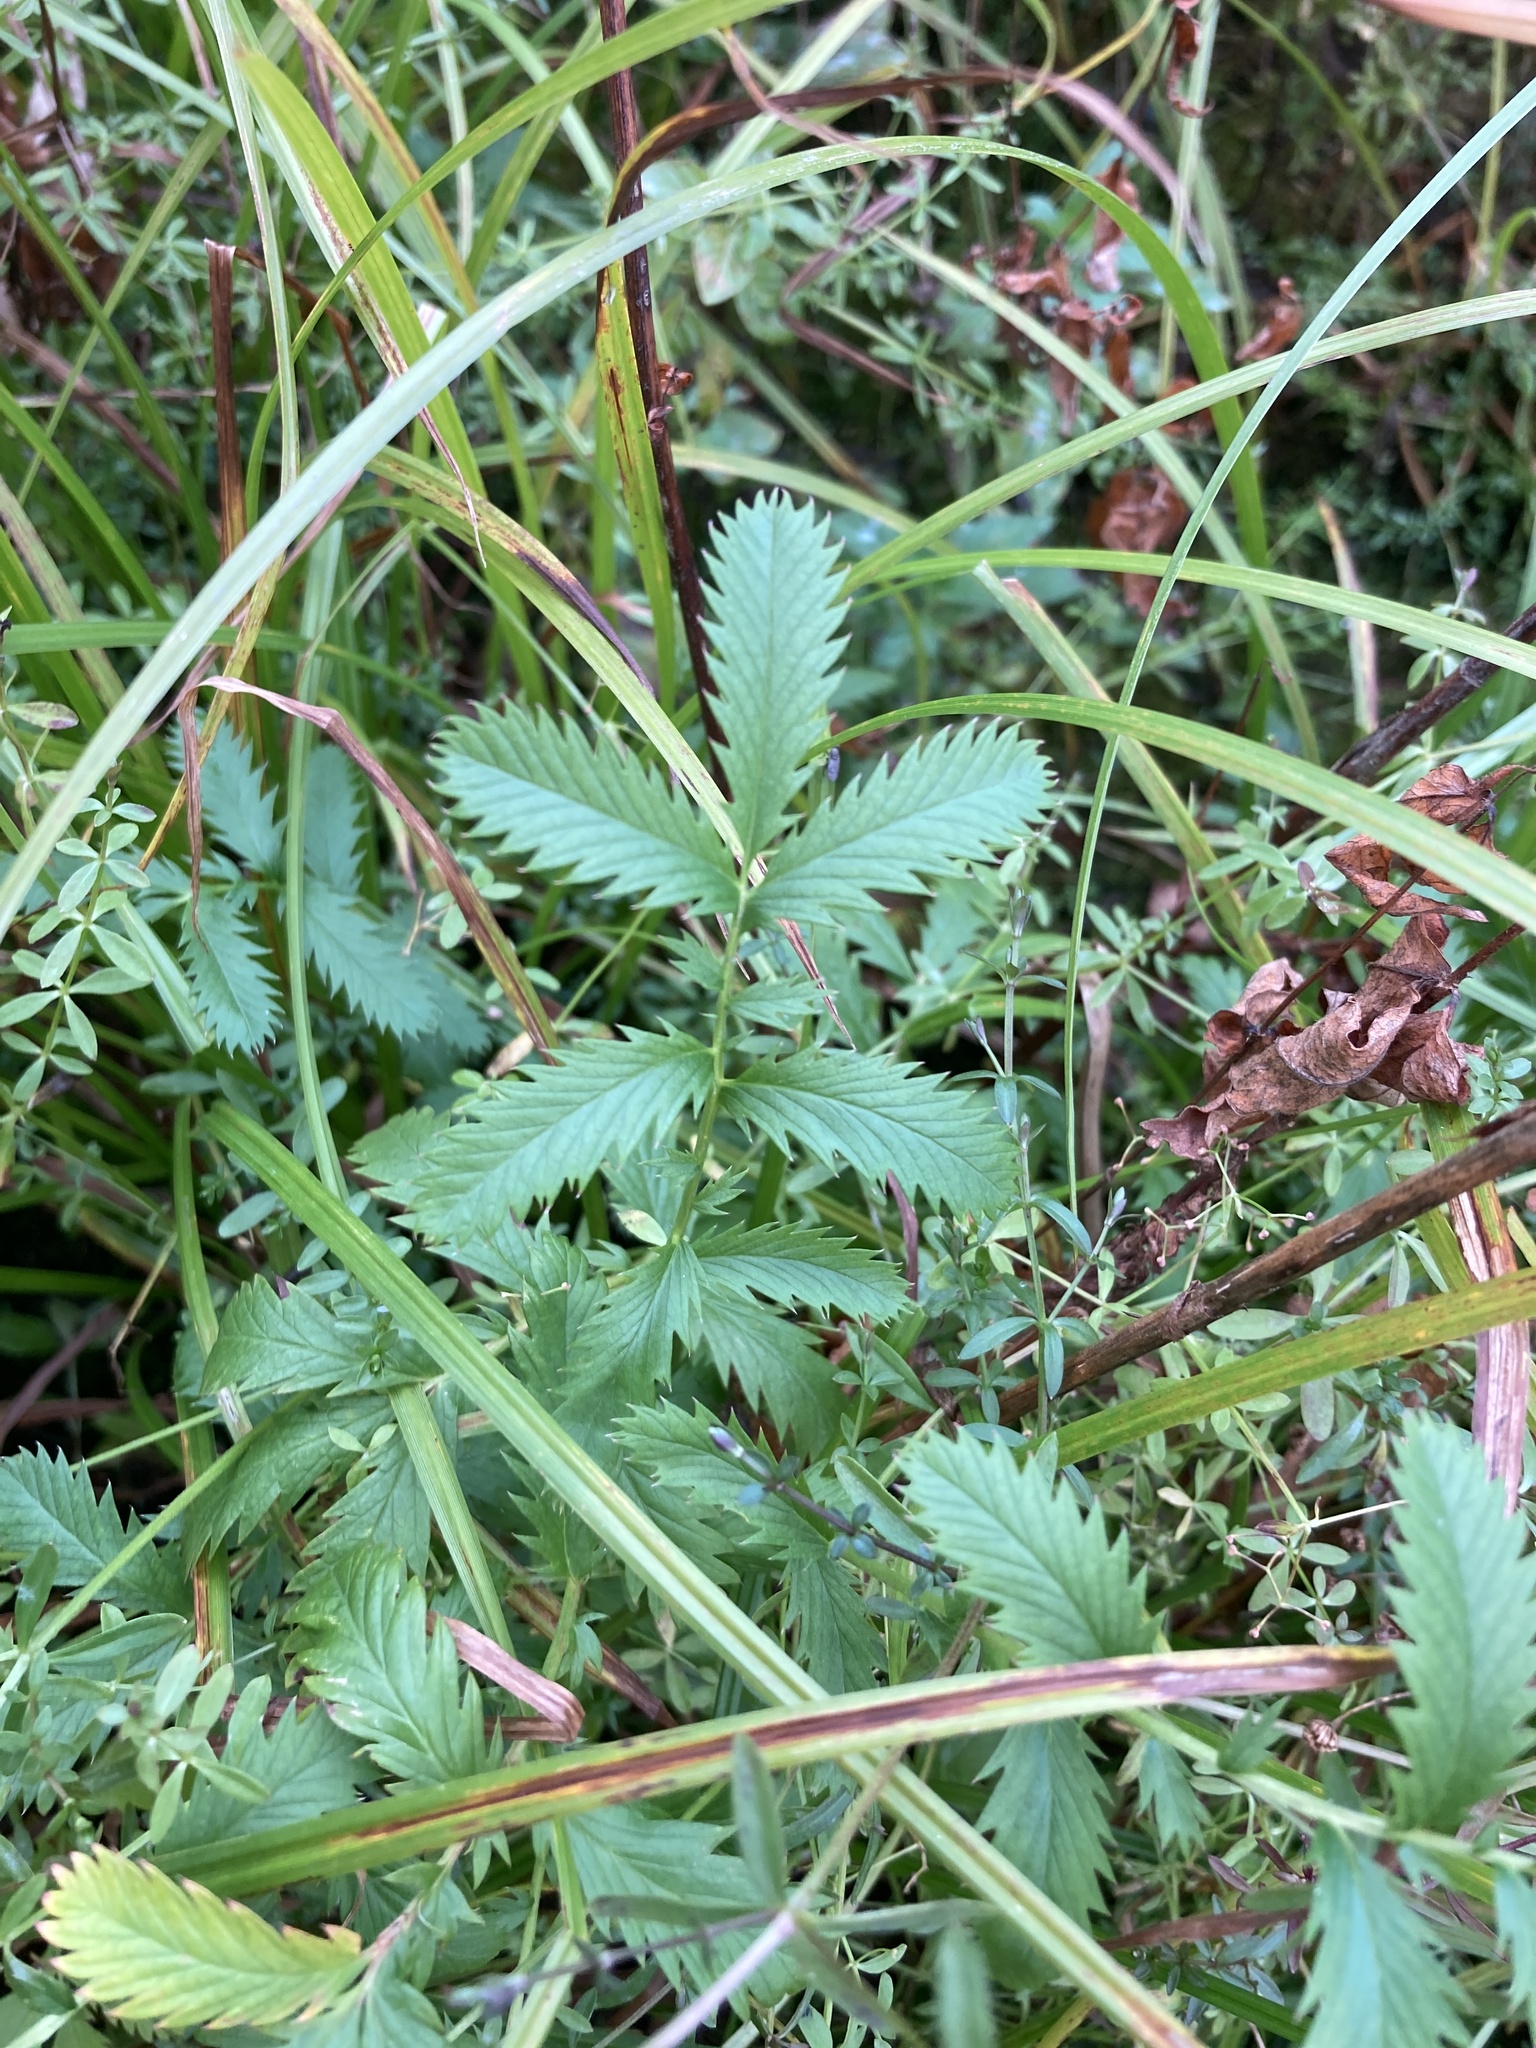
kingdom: Plantae
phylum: Tracheophyta
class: Magnoliopsida
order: Rosales
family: Rosaceae
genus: Argentina
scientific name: Argentina anserina
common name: Common silverweed
